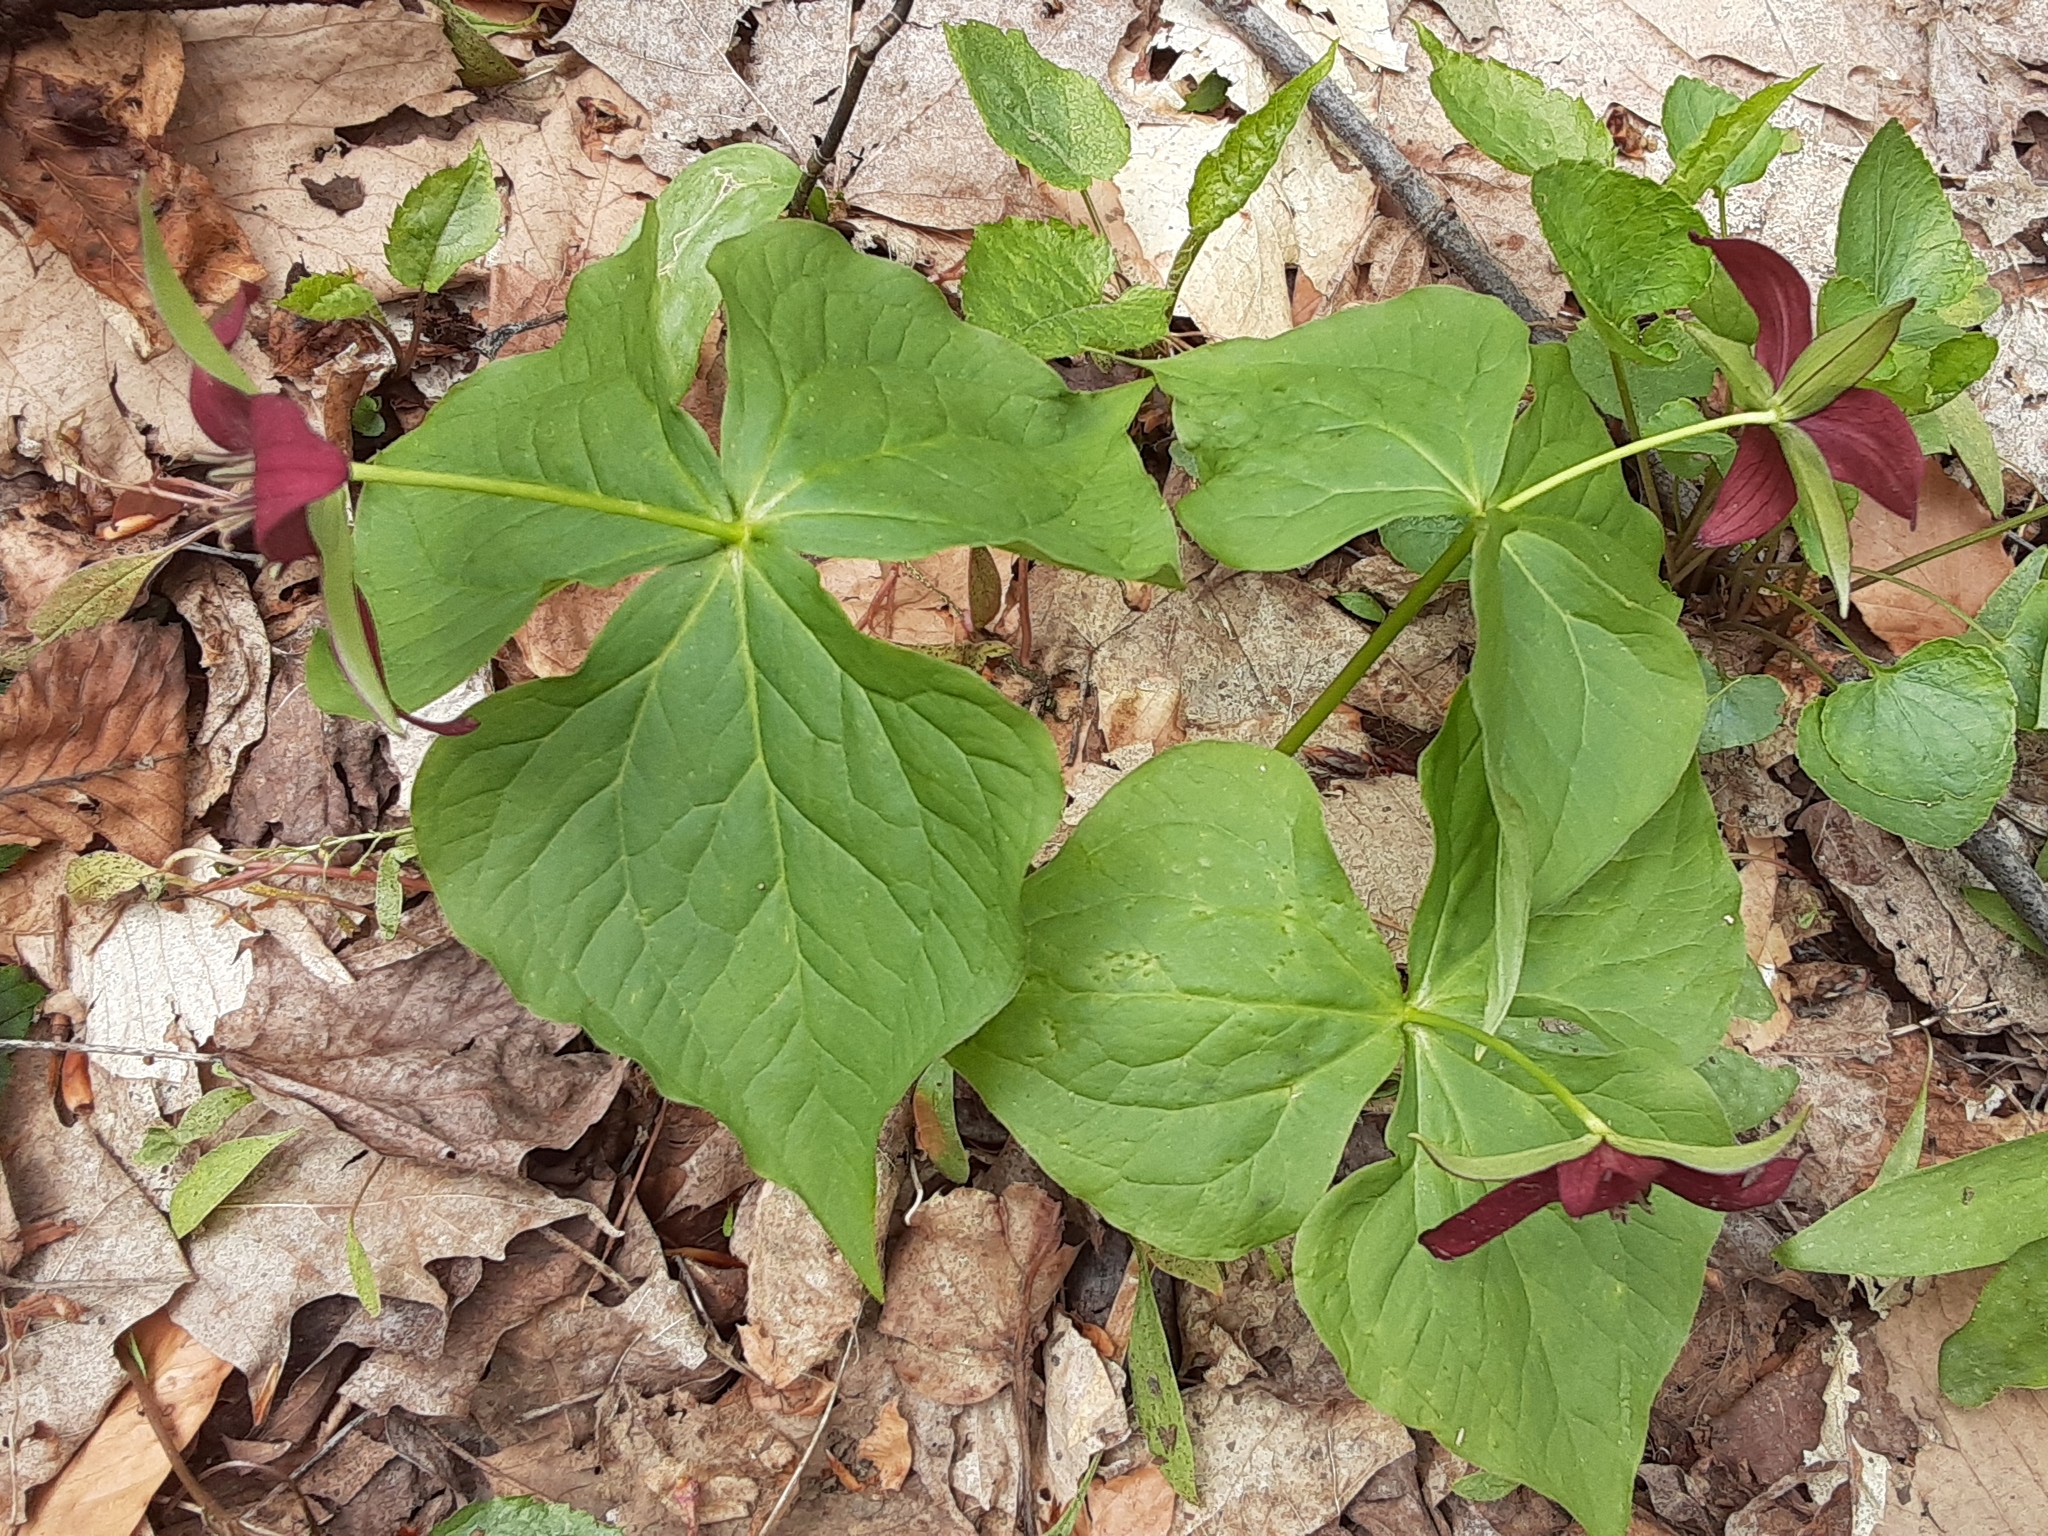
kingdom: Plantae
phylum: Tracheophyta
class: Liliopsida
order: Liliales
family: Melanthiaceae
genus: Trillium
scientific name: Trillium erectum
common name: Purple trillium
